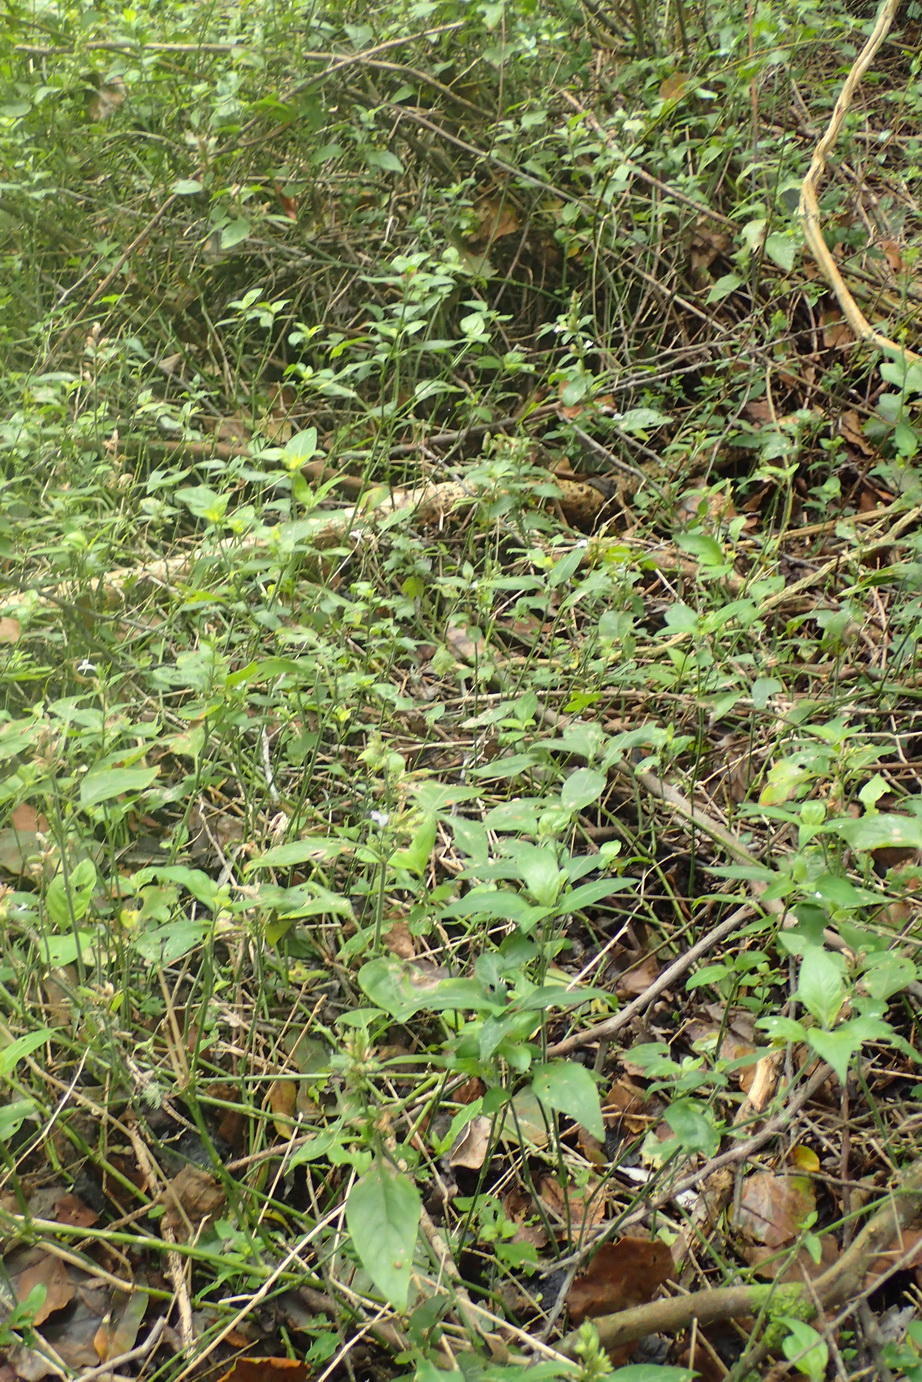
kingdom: Plantae
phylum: Tracheophyta
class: Magnoliopsida
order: Lamiales
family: Acanthaceae
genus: Hypoestes
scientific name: Hypoestes forskaolii
